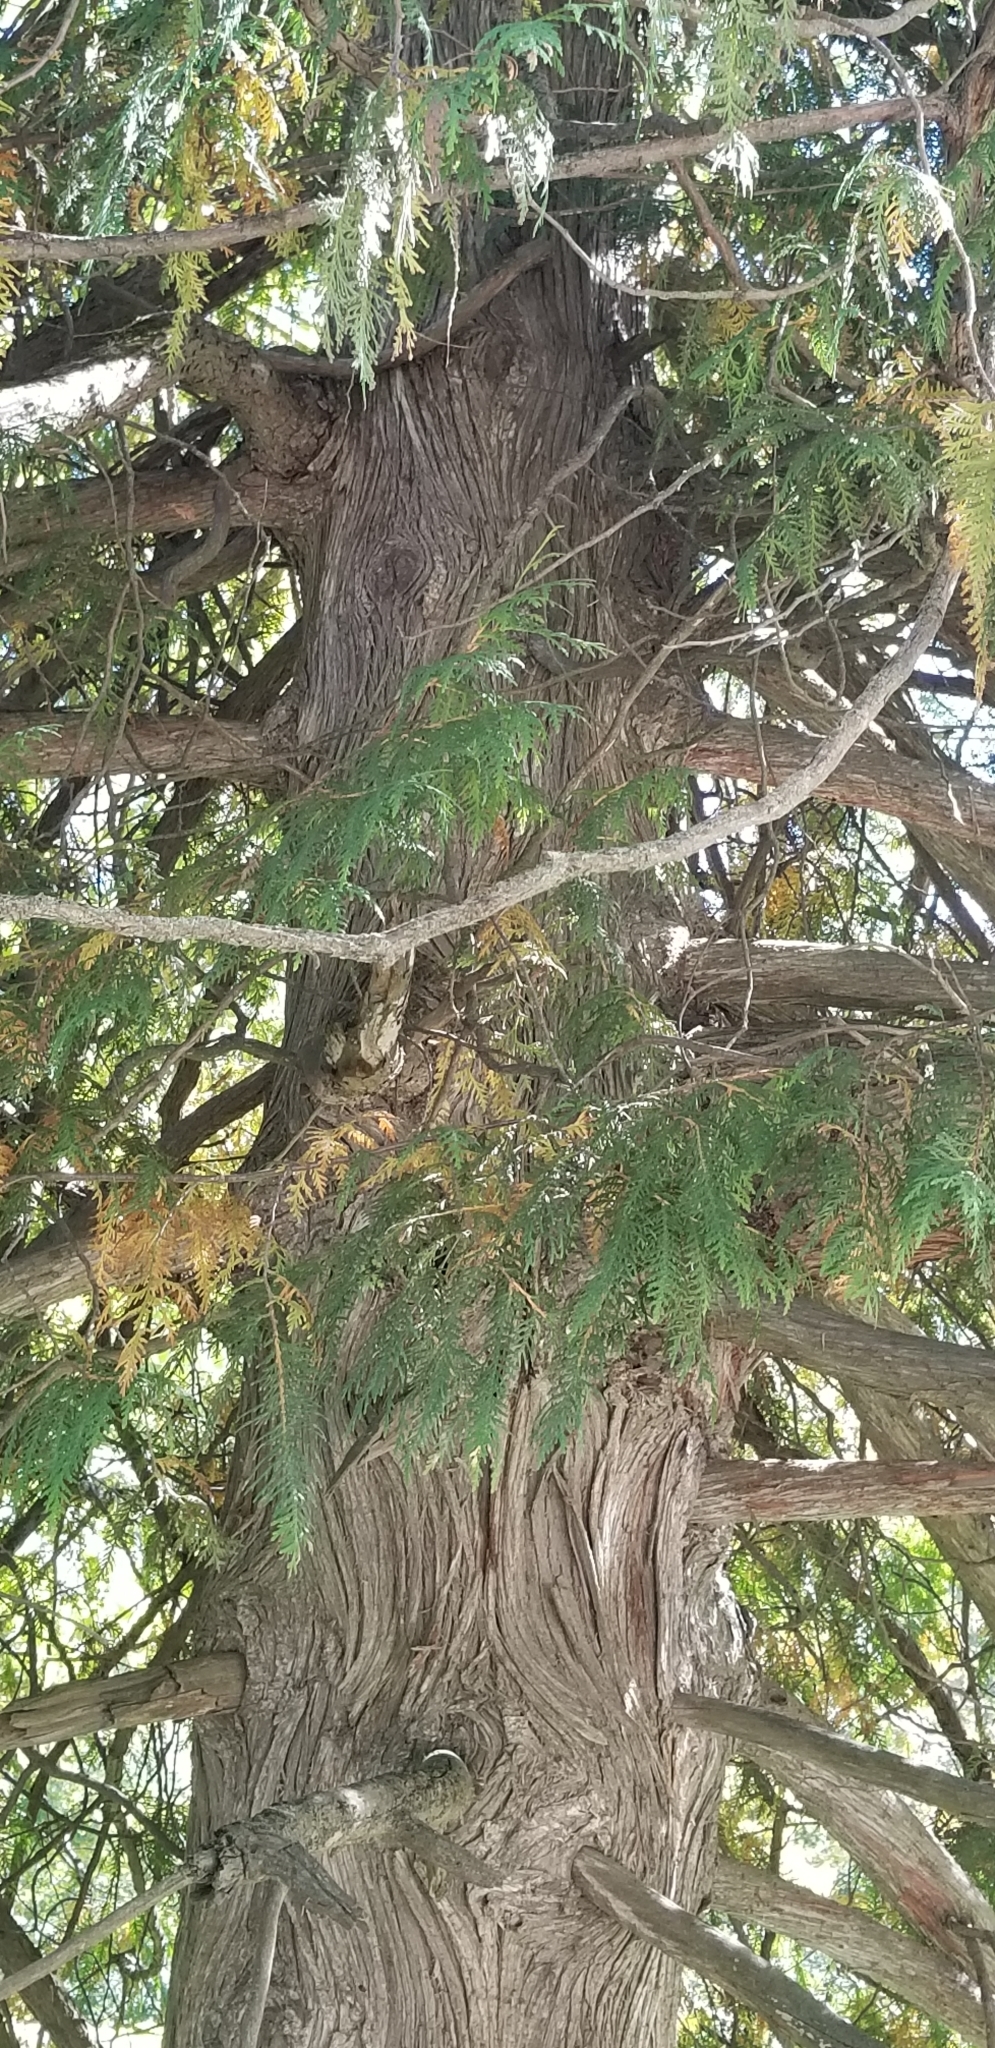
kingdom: Plantae
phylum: Tracheophyta
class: Pinopsida
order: Pinales
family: Cupressaceae
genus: Thuja
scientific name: Thuja occidentalis
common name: Northern white-cedar
